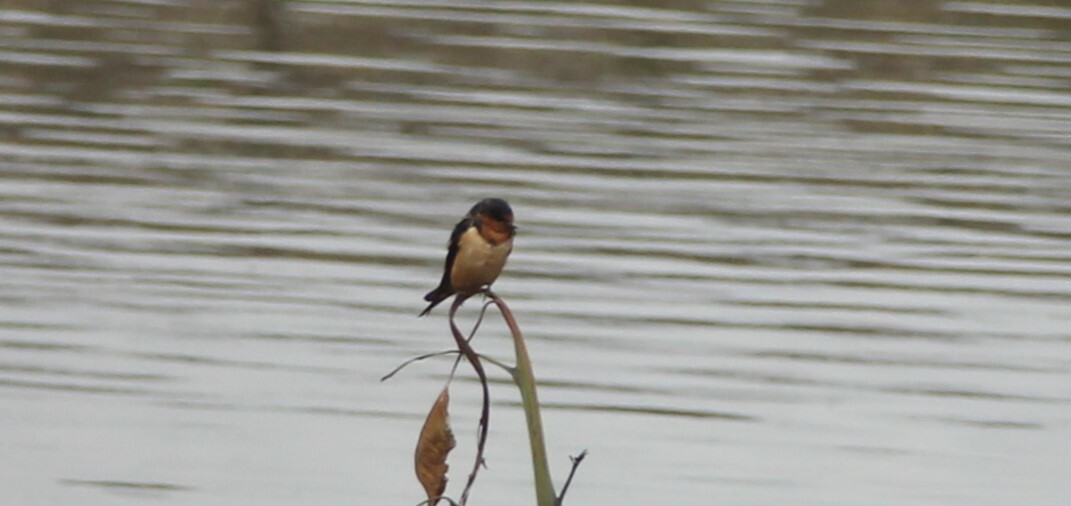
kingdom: Animalia
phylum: Chordata
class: Aves
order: Passeriformes
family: Hirundinidae
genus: Hirundo
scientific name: Hirundo rustica
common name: Barn swallow
